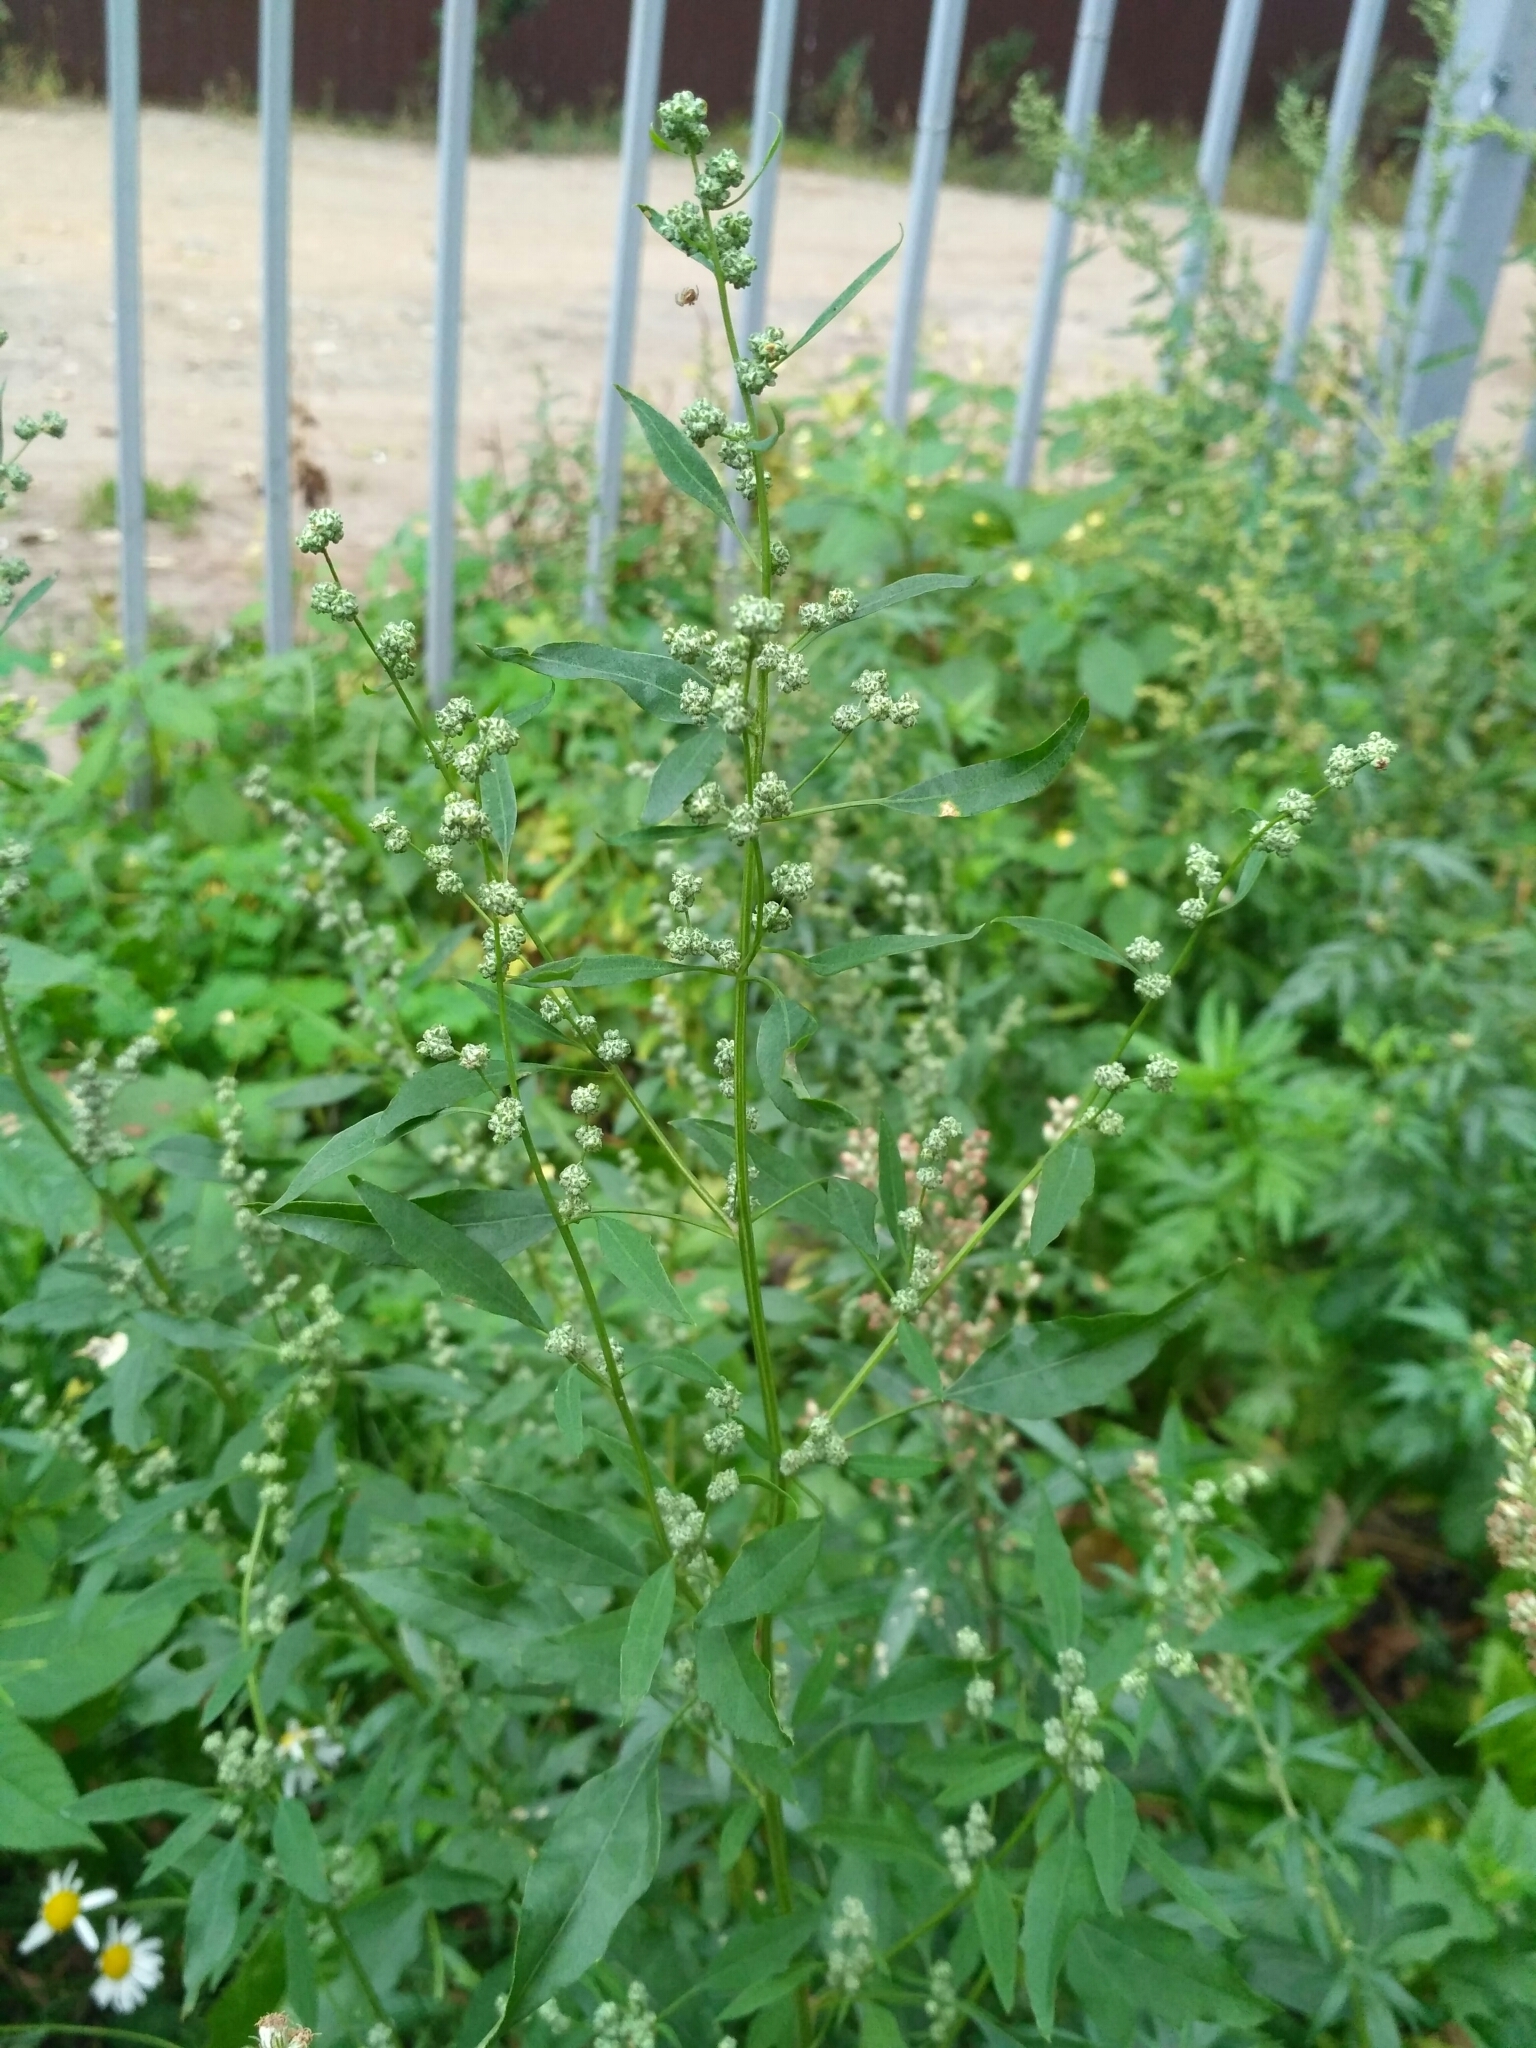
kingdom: Plantae
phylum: Tracheophyta
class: Magnoliopsida
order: Caryophyllales
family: Amaranthaceae
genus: Chenopodium
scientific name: Chenopodium album
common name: Fat-hen
